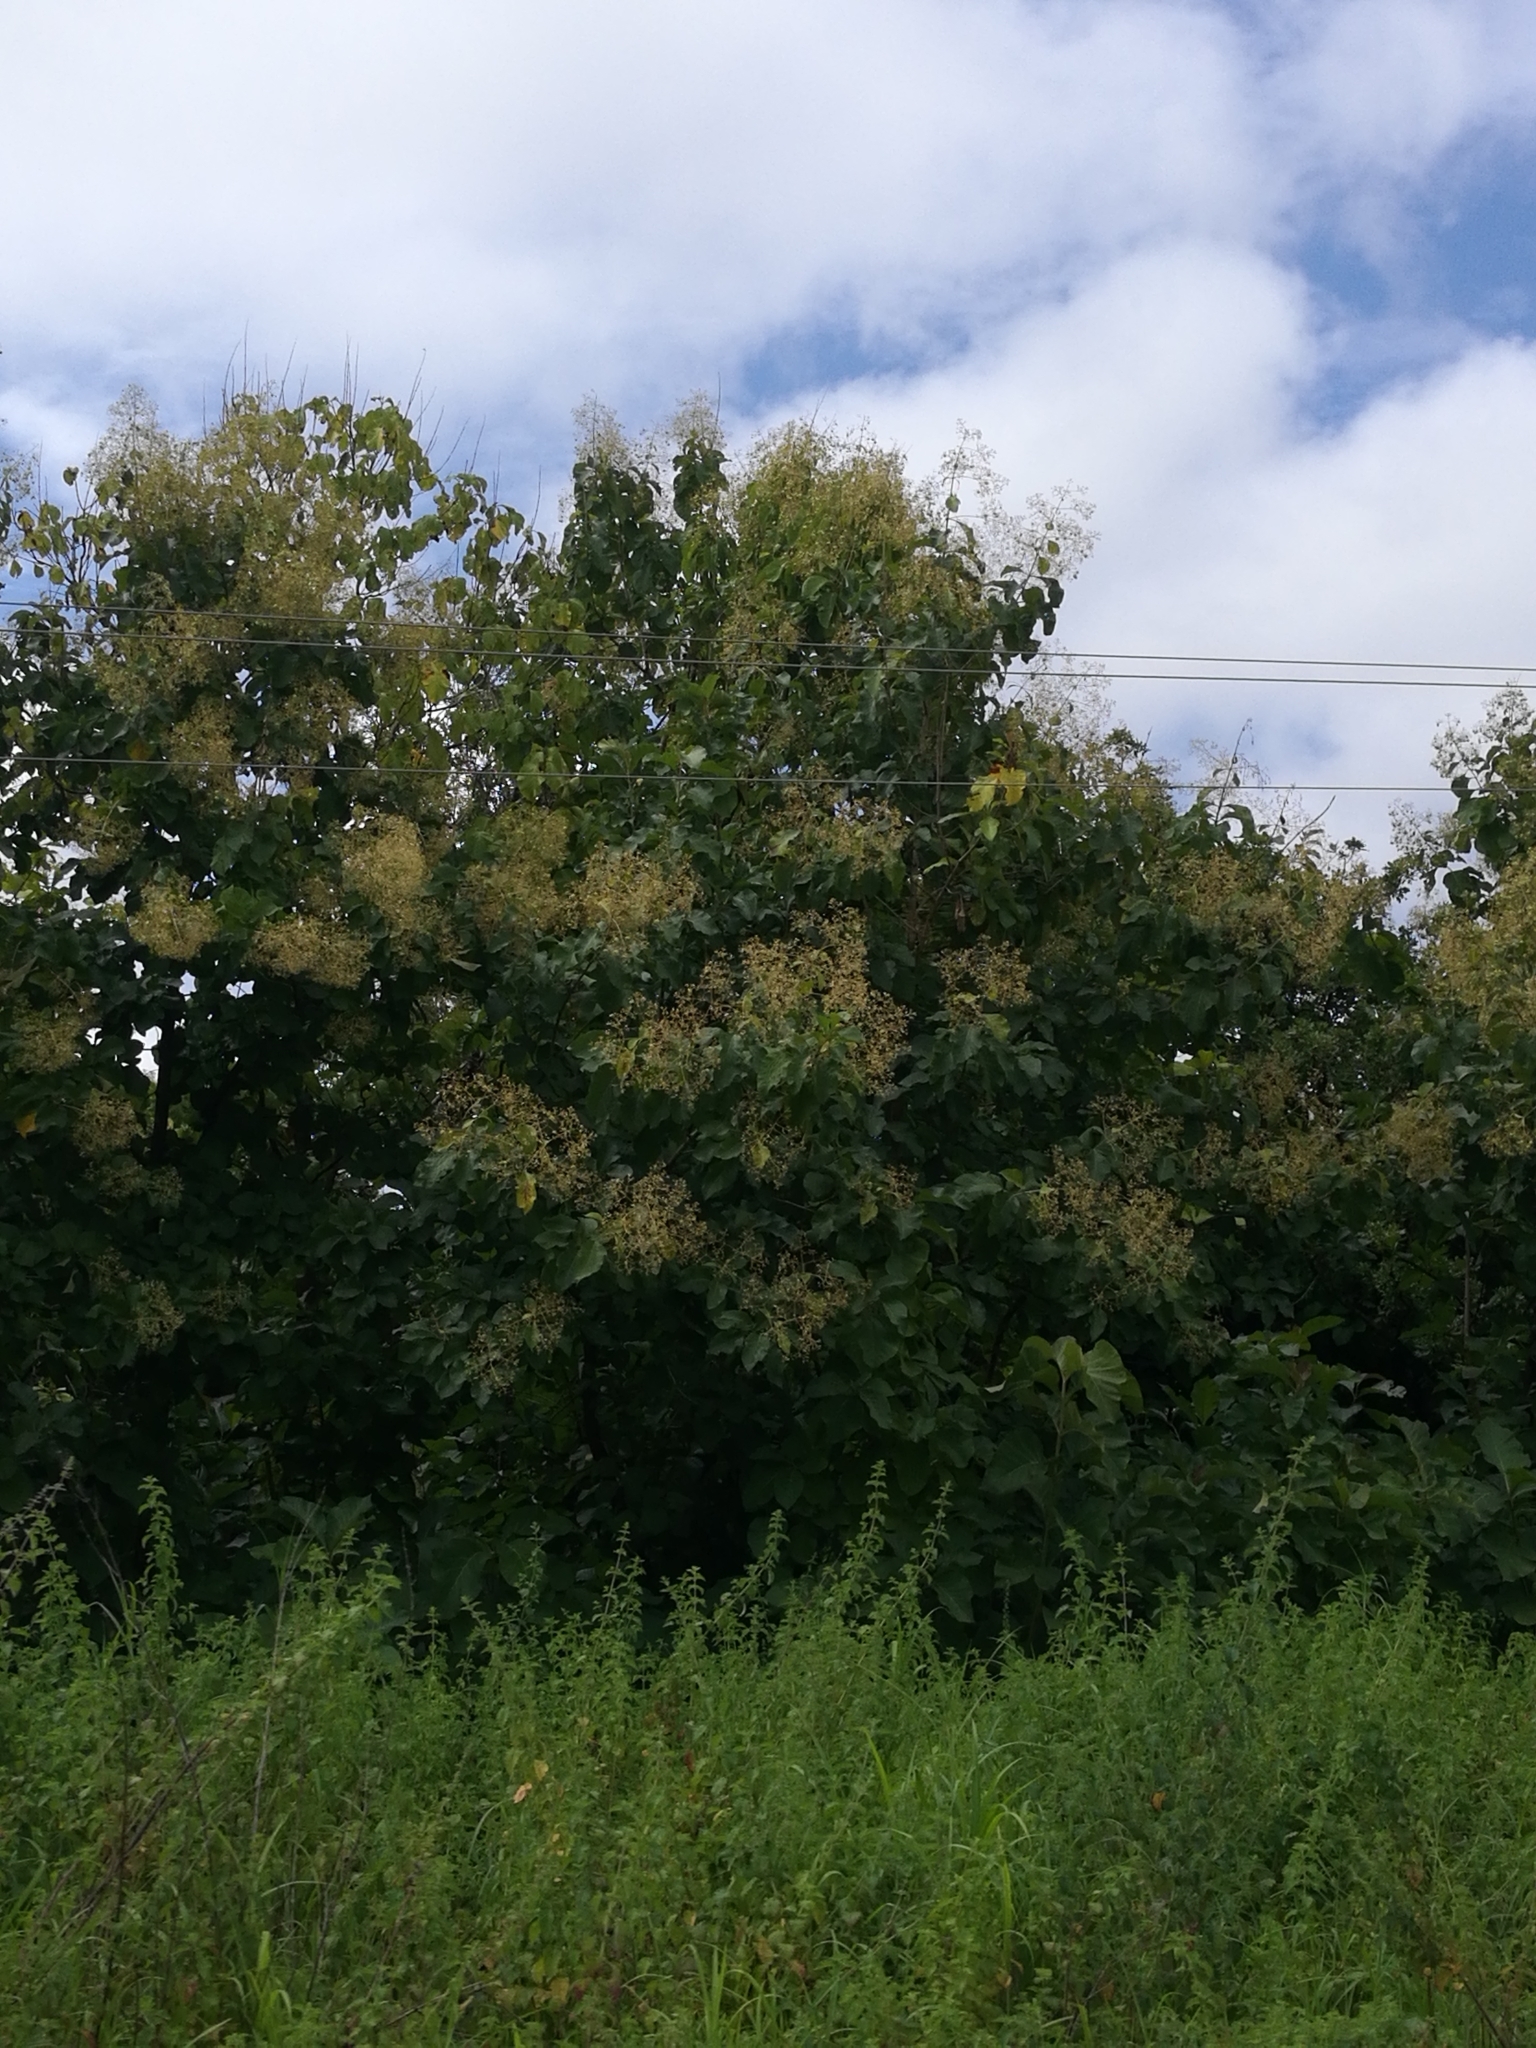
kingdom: Plantae
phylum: Tracheophyta
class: Magnoliopsida
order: Lamiales
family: Lamiaceae
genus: Tectona
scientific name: Tectona grandis
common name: Teak
